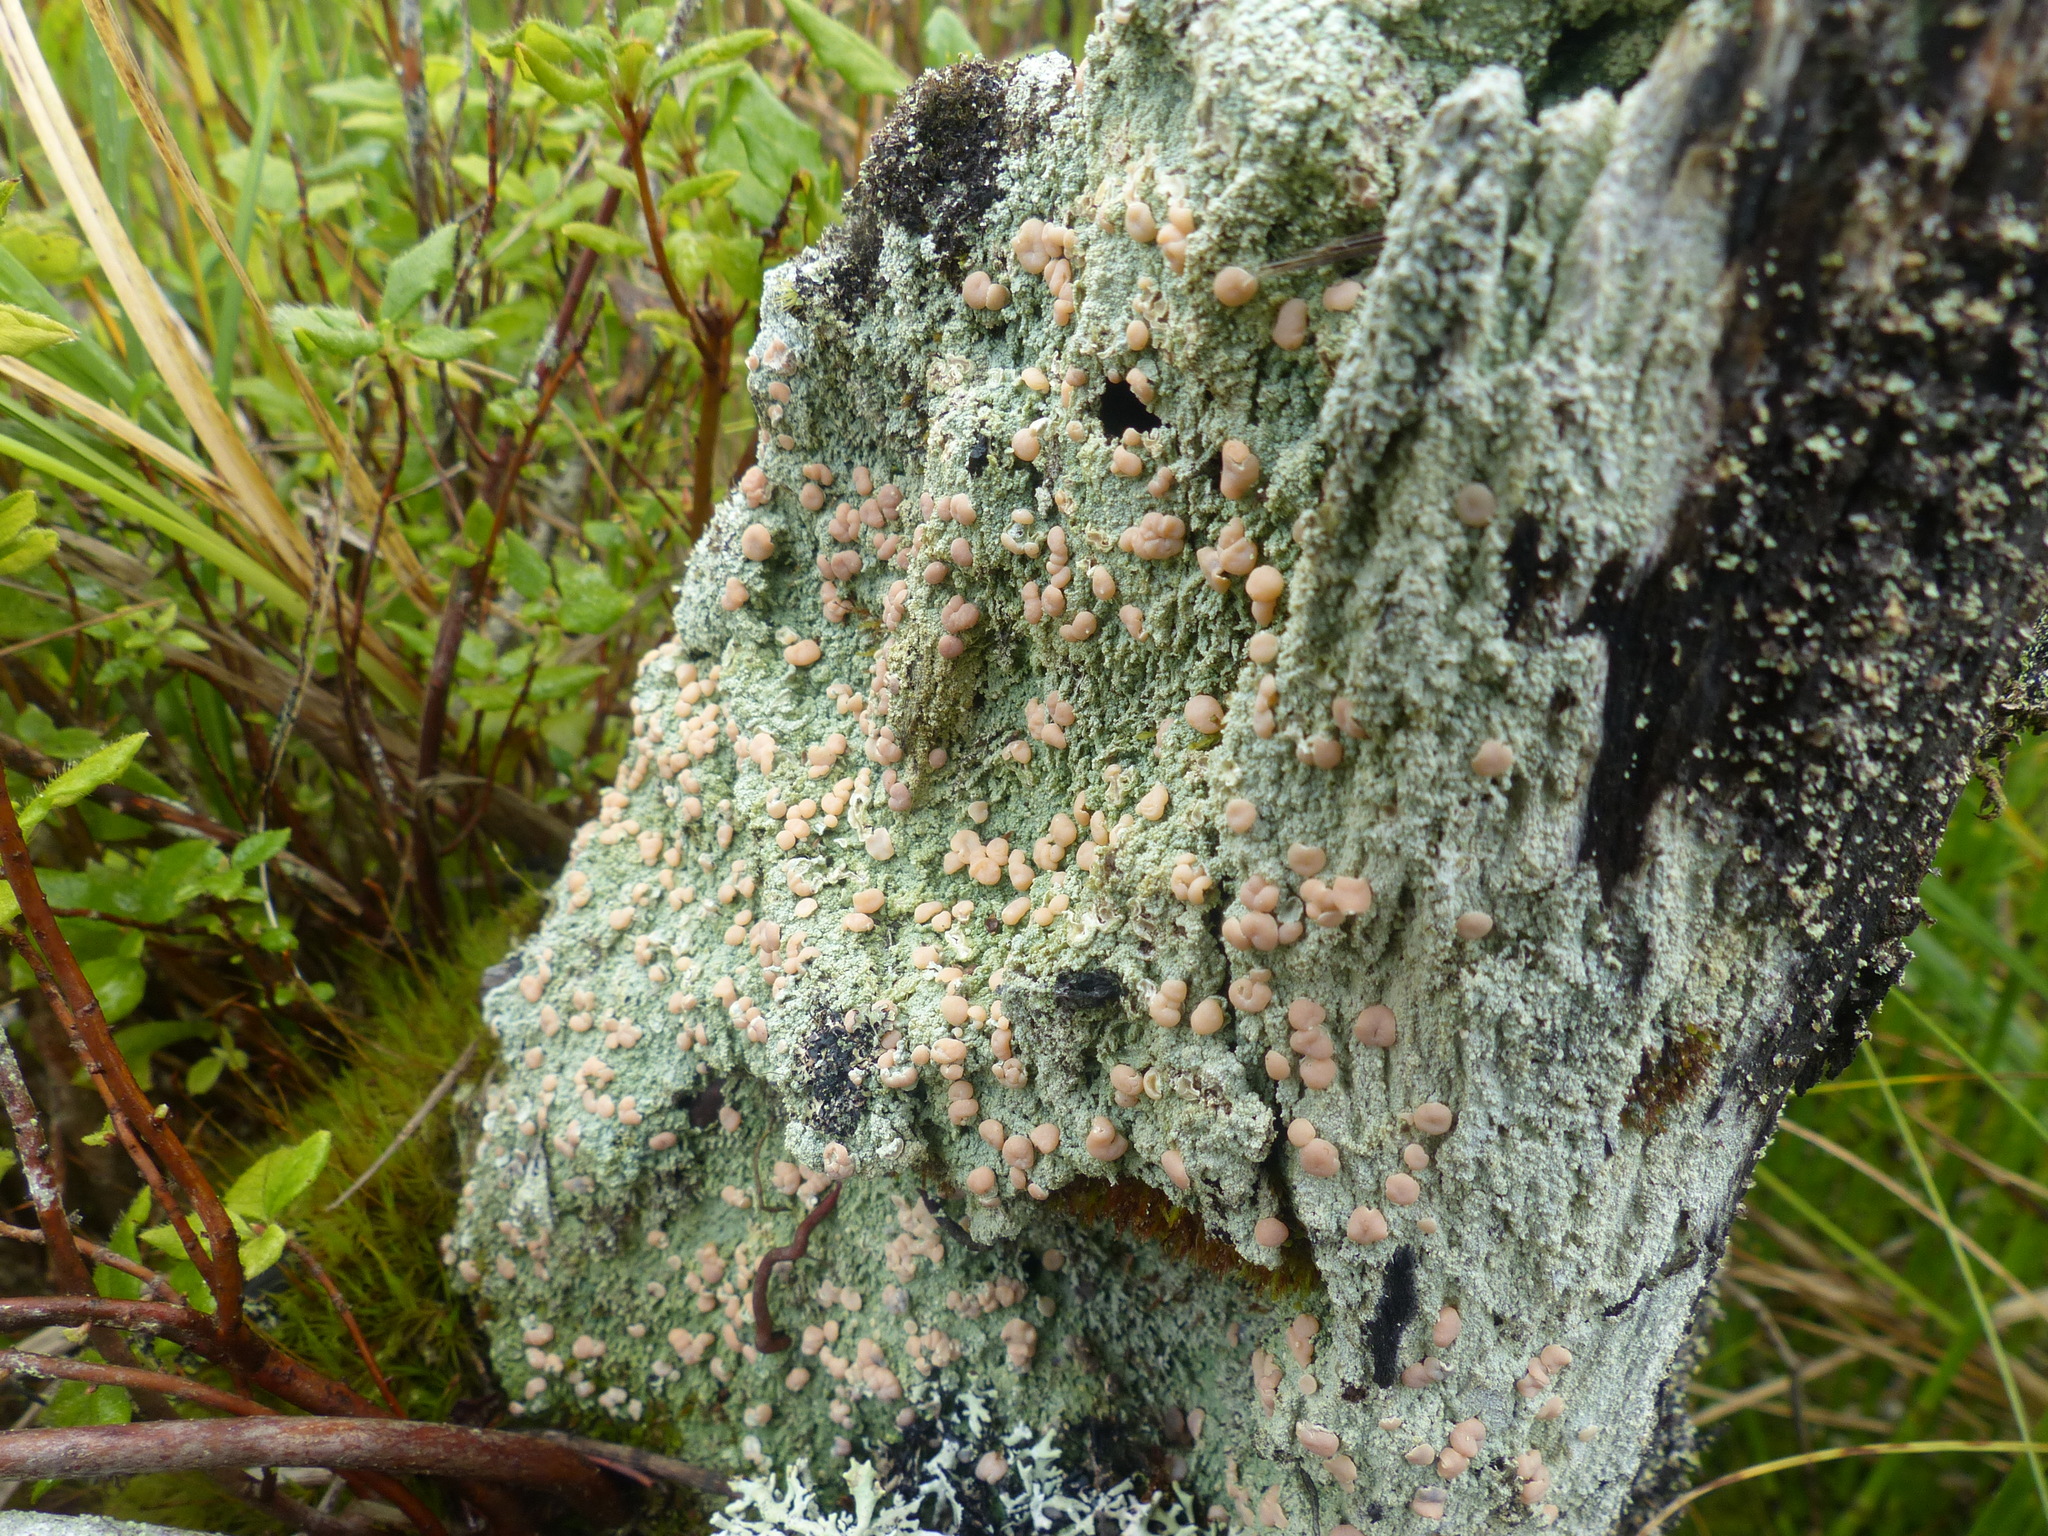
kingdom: Fungi
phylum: Ascomycota
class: Lecanoromycetes
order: Pertusariales
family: Icmadophilaceae
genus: Icmadophila
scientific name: Icmadophila ericetorum
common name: Candy lichen
